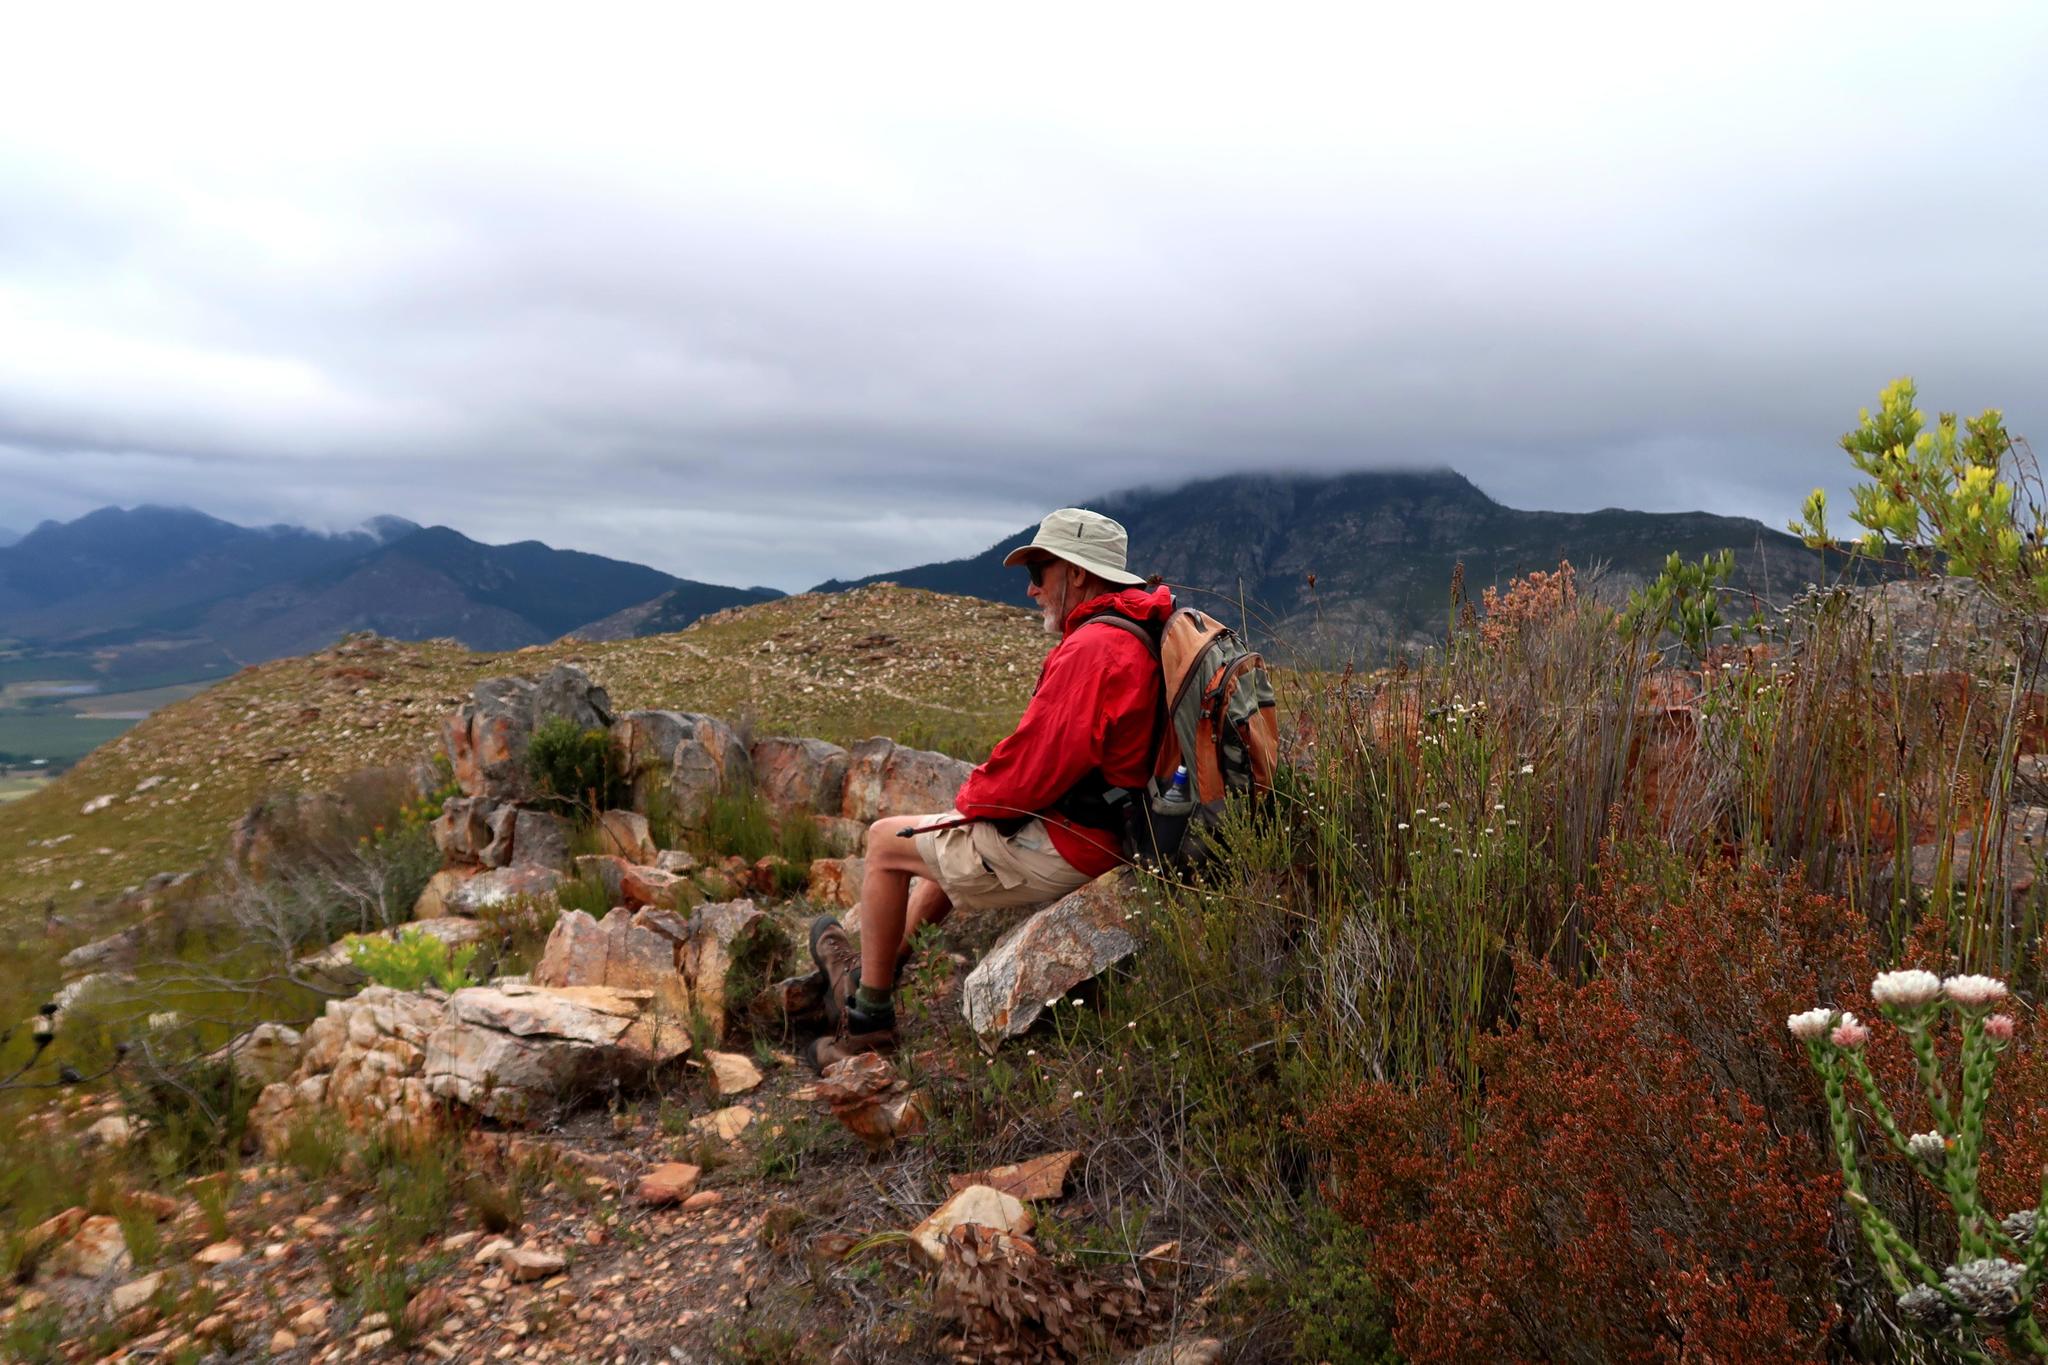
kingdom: Plantae
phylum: Tracheophyta
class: Magnoliopsida
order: Asterales
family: Asteraceae
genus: Metalasia
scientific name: Metalasia pulcherrima
